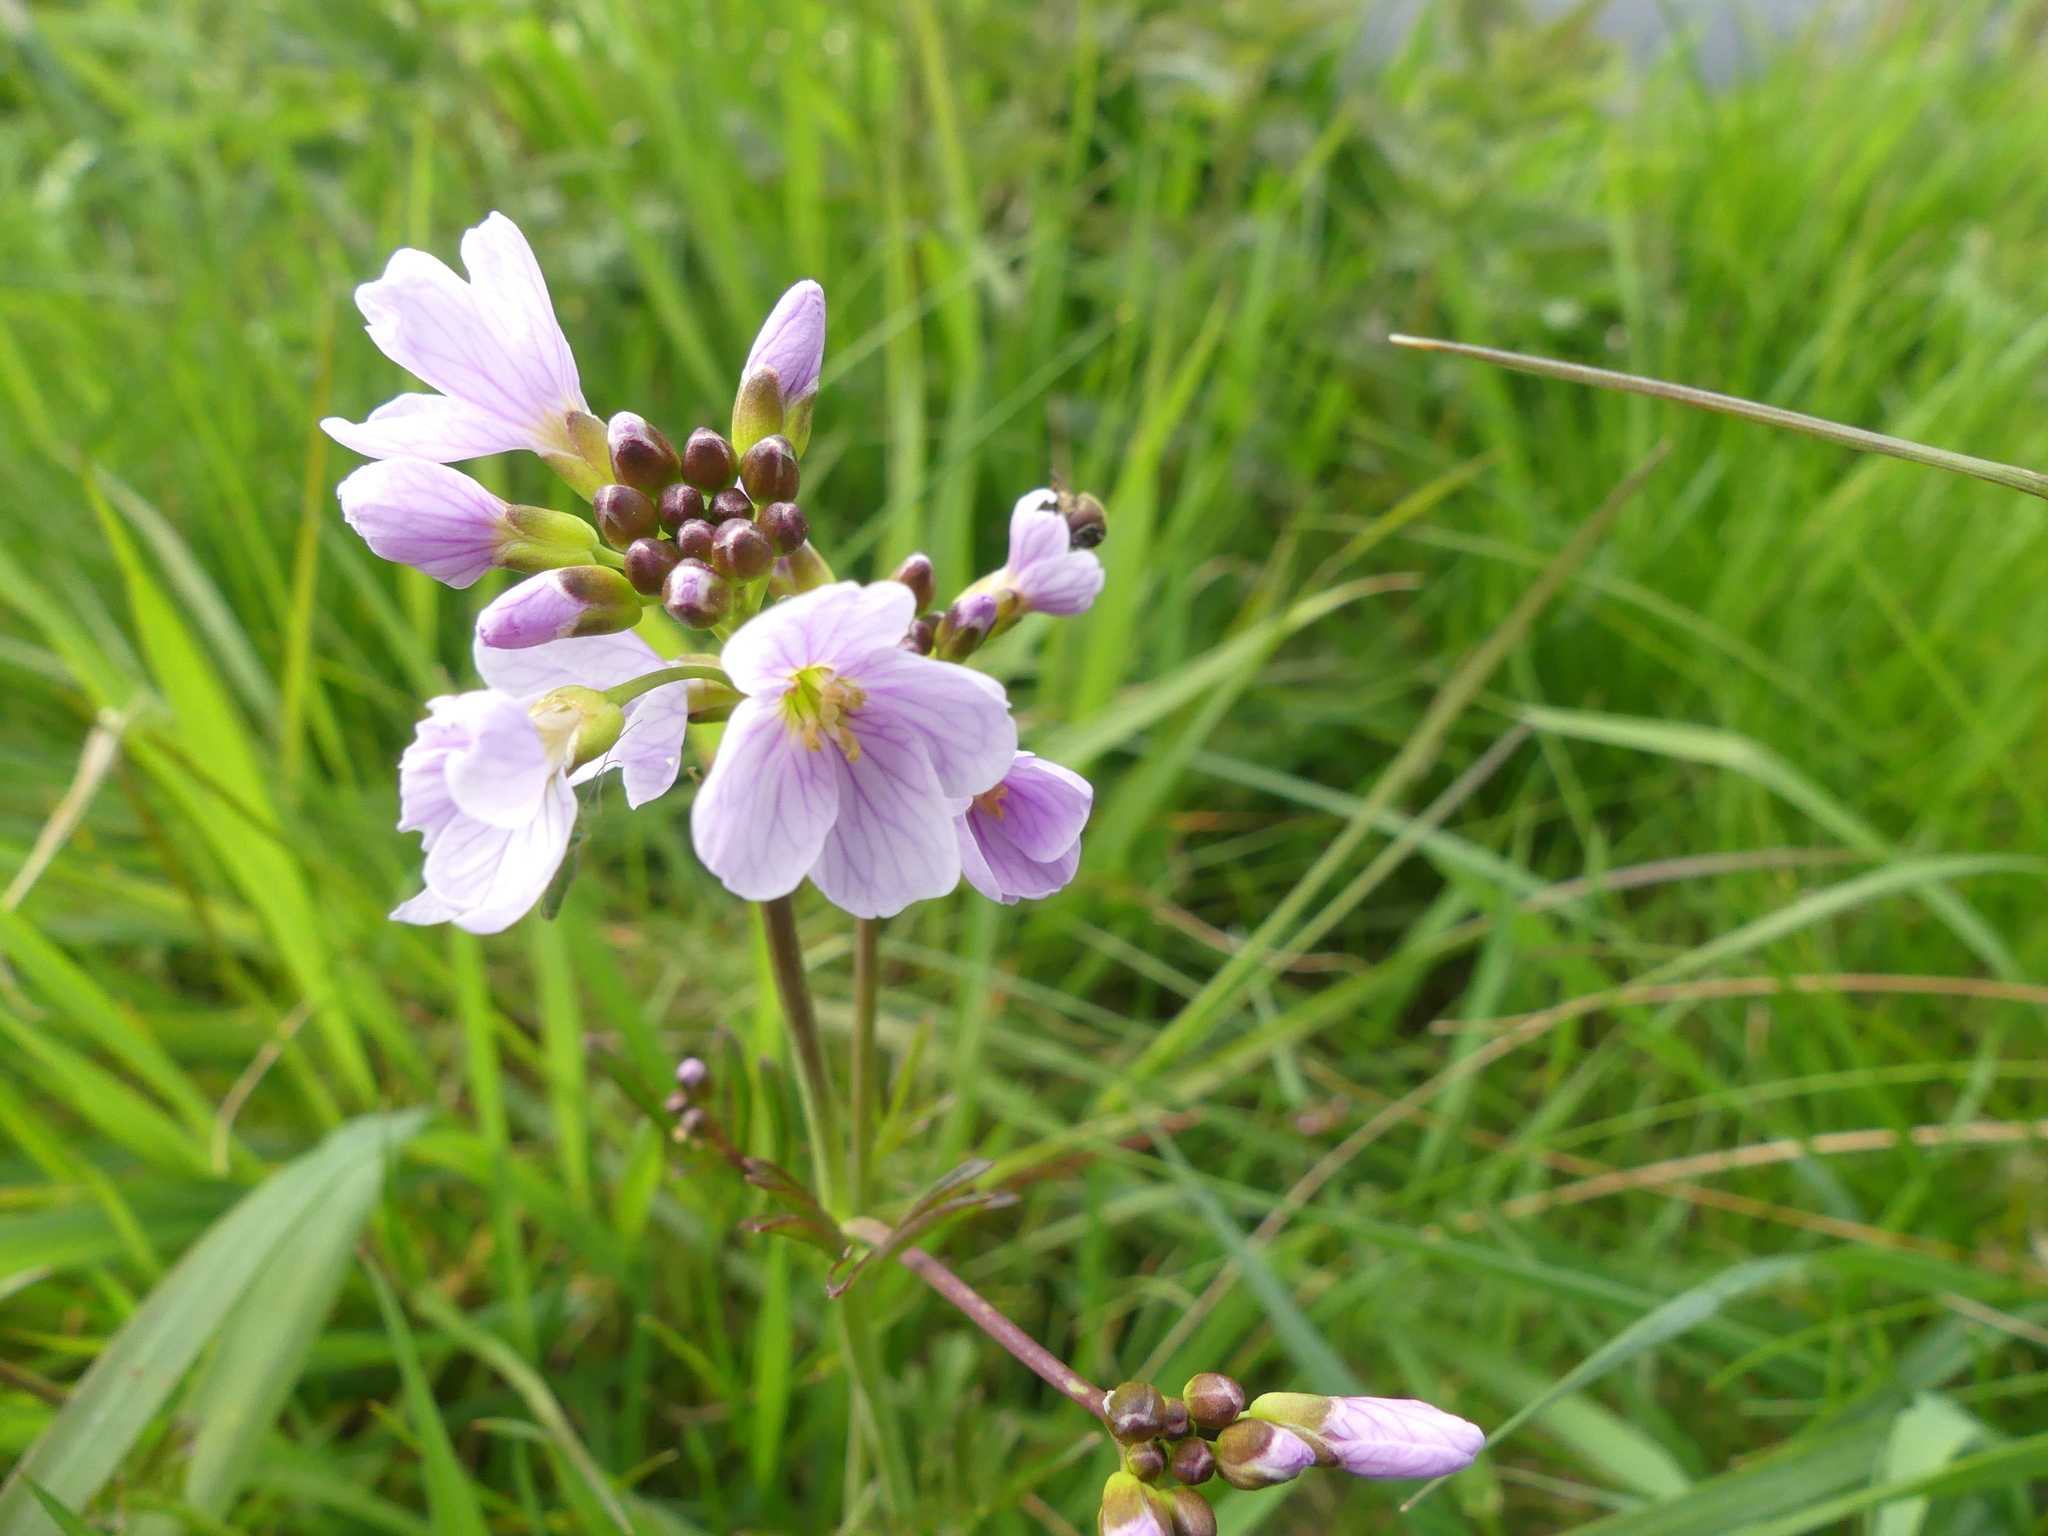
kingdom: Plantae
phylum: Tracheophyta
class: Magnoliopsida
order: Brassicales
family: Brassicaceae
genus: Cardamine
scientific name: Cardamine pratensis
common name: Cuckoo flower
